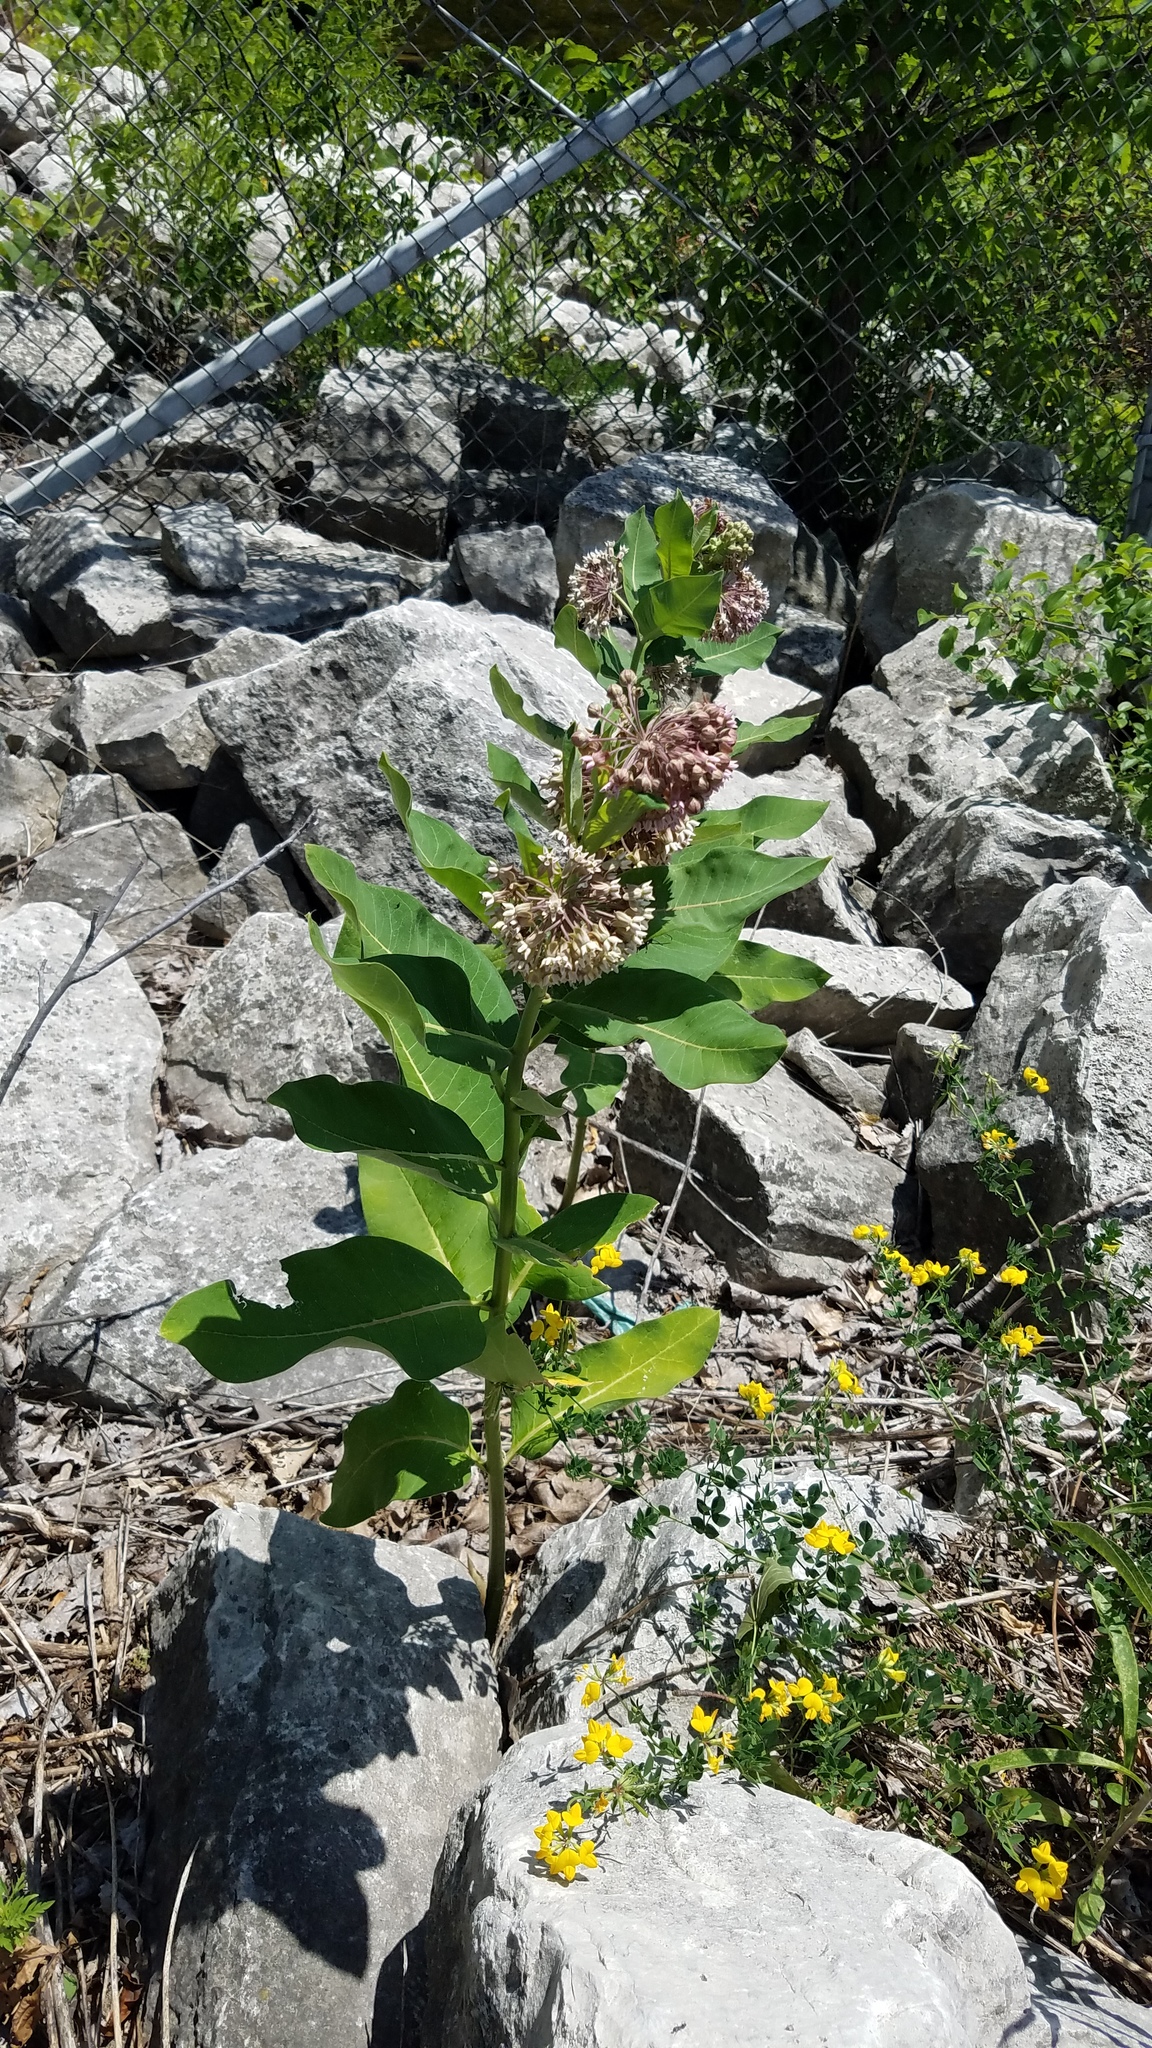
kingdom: Plantae
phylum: Tracheophyta
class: Magnoliopsida
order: Gentianales
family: Apocynaceae
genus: Asclepias
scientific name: Asclepias syriaca
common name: Common milkweed
